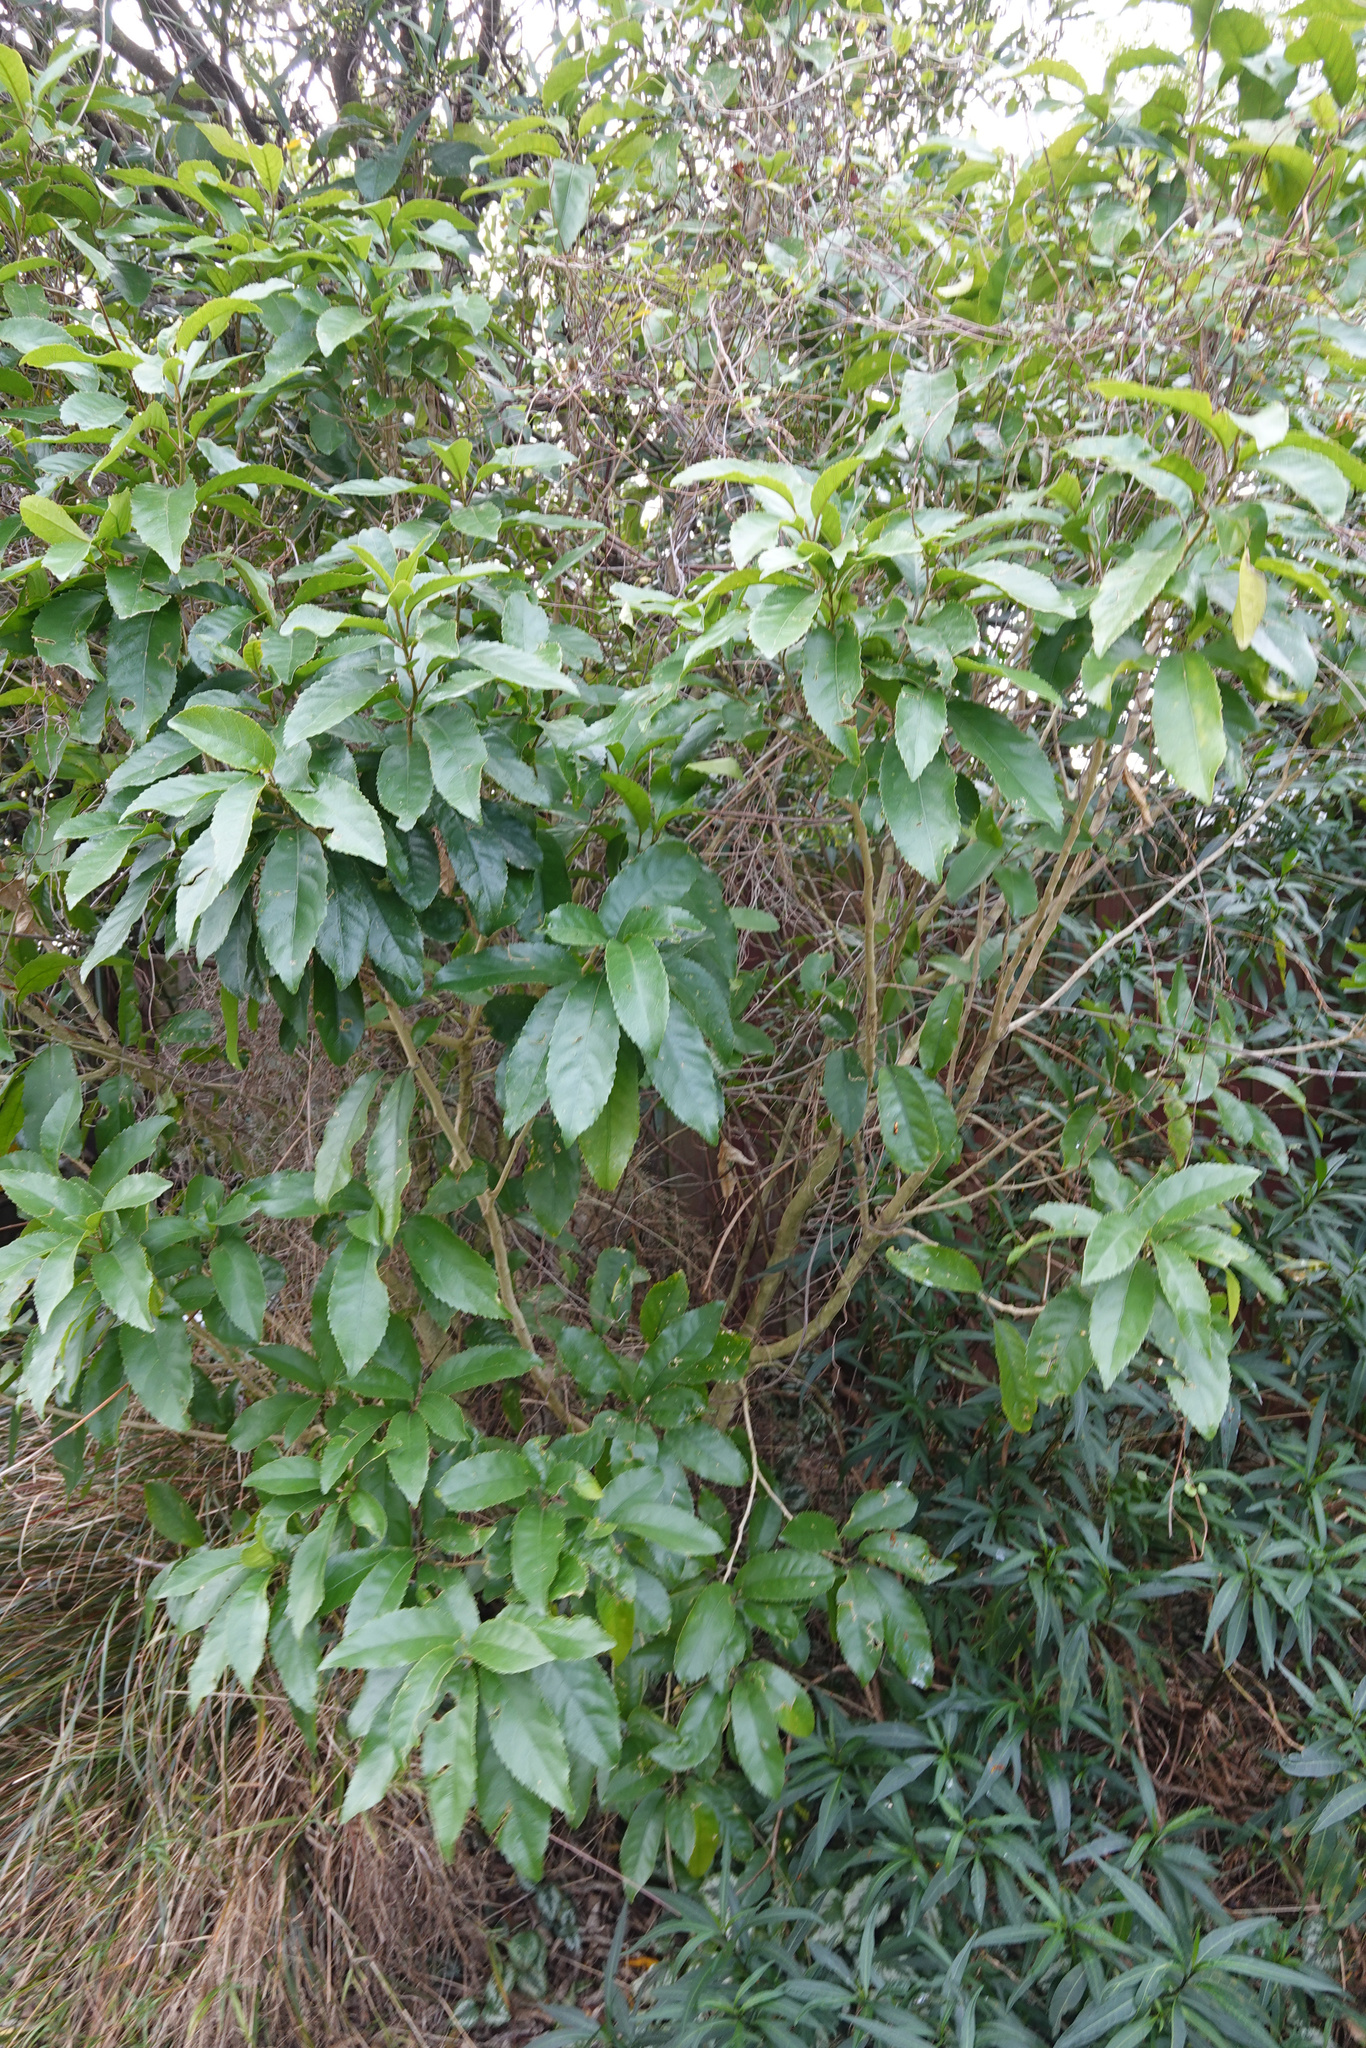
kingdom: Plantae
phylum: Tracheophyta
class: Magnoliopsida
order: Malpighiales
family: Violaceae
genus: Melicytus
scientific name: Melicytus ramiflorus
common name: Mahoe
